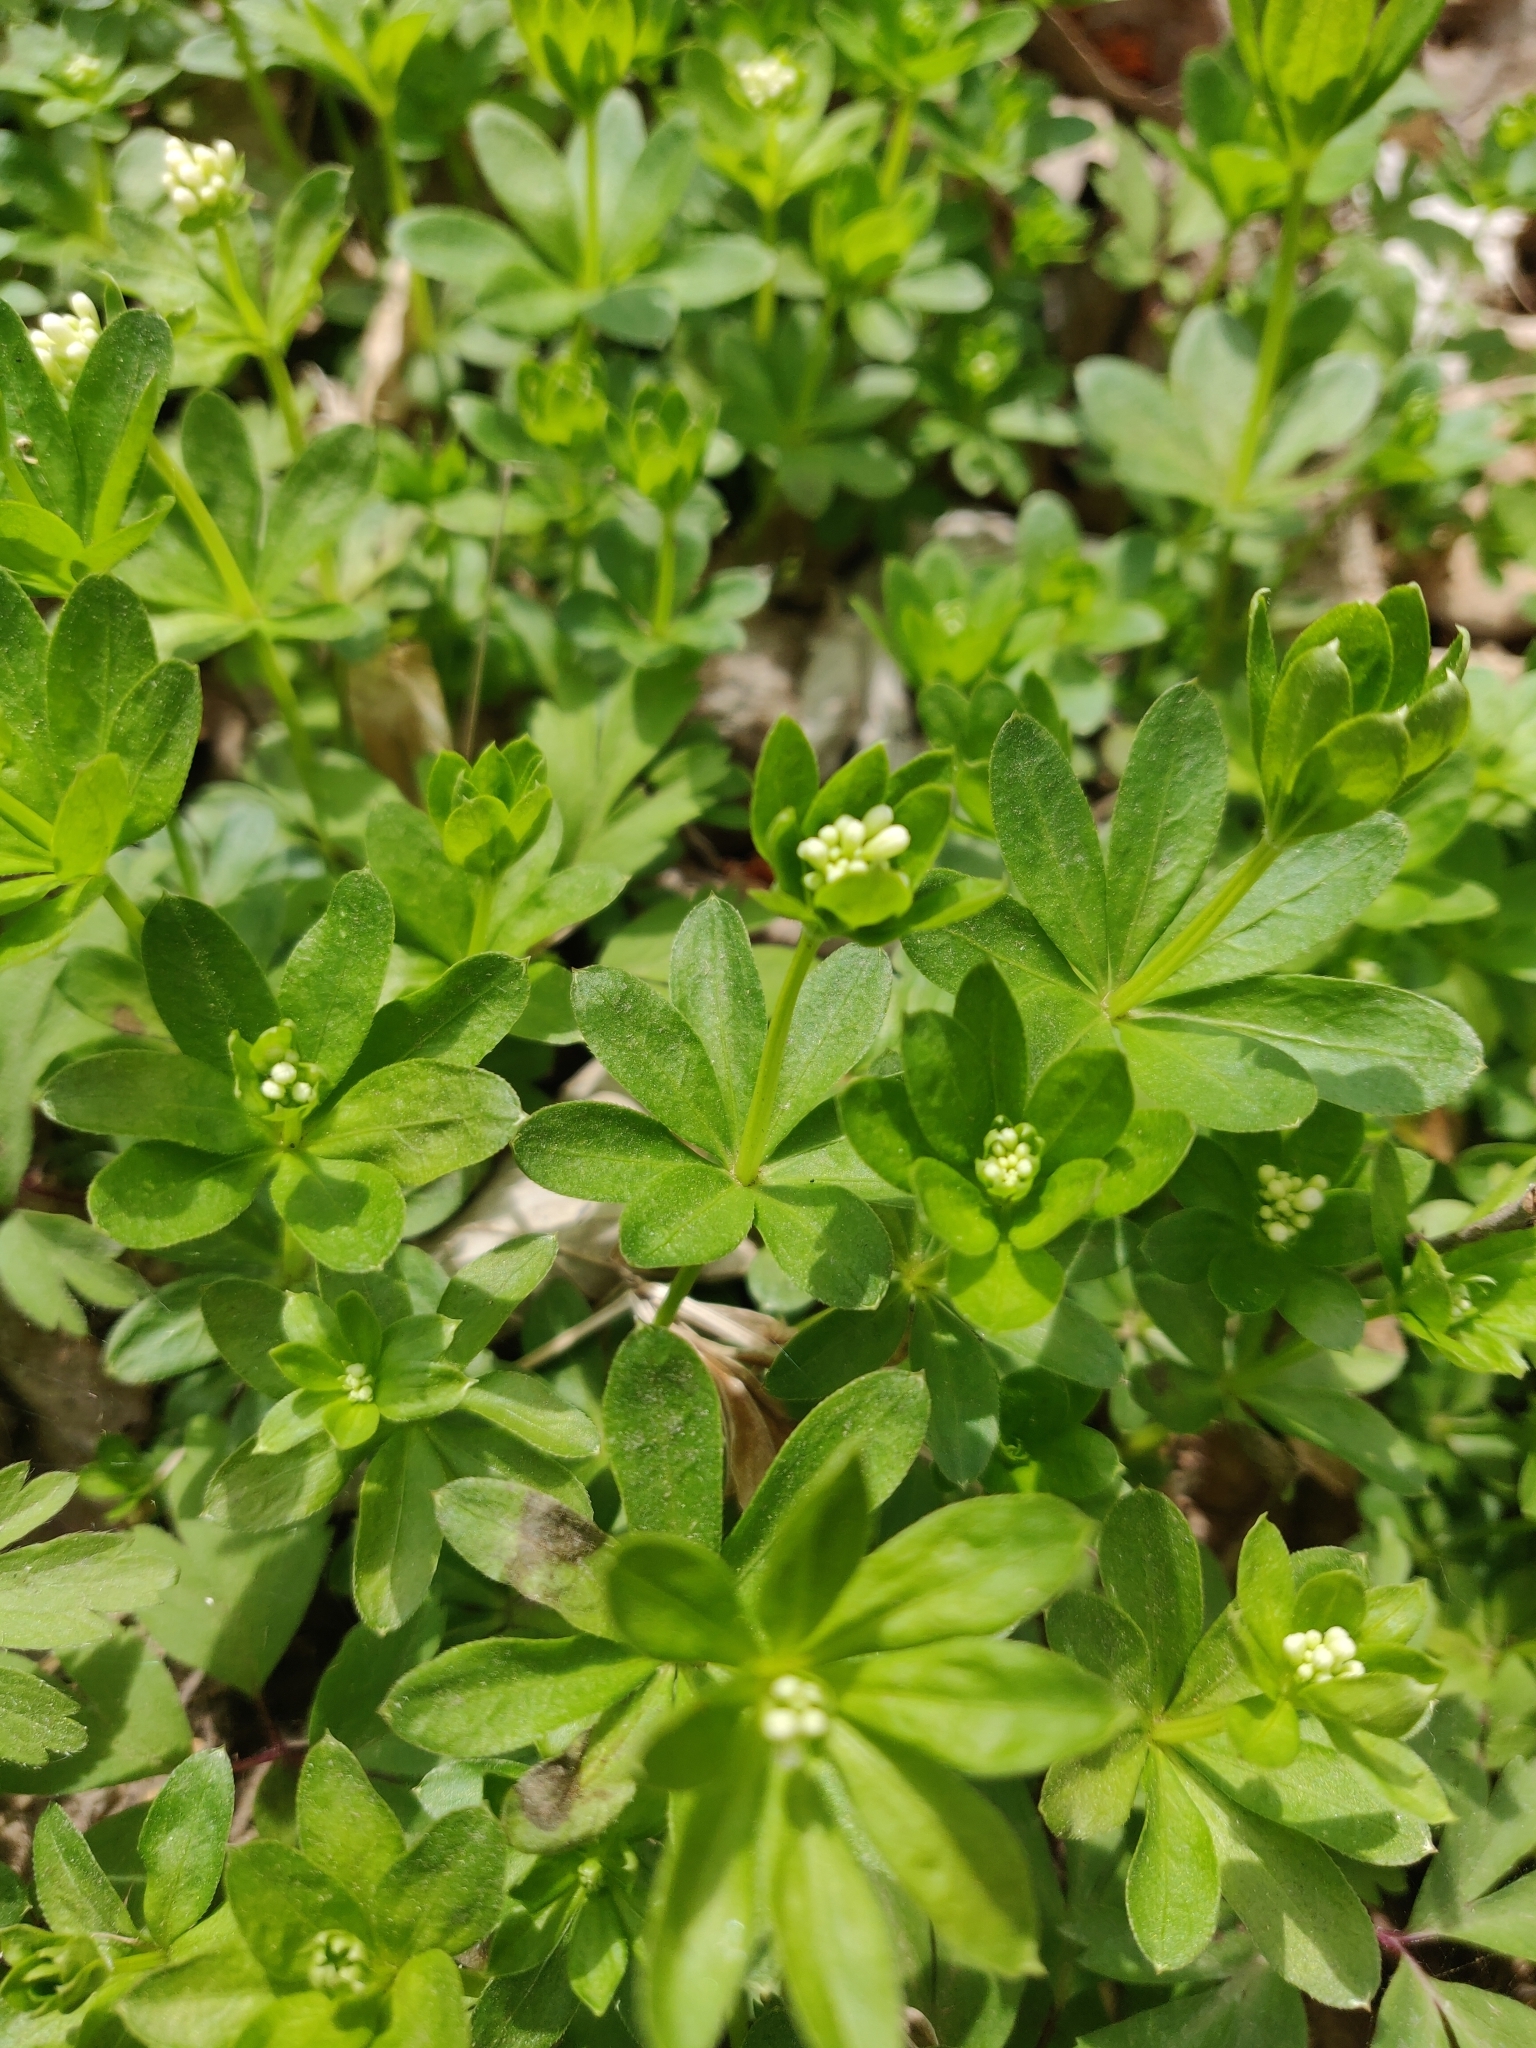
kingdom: Plantae
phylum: Tracheophyta
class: Magnoliopsida
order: Gentianales
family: Rubiaceae
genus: Galium
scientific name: Galium odoratum
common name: Sweet woodruff
